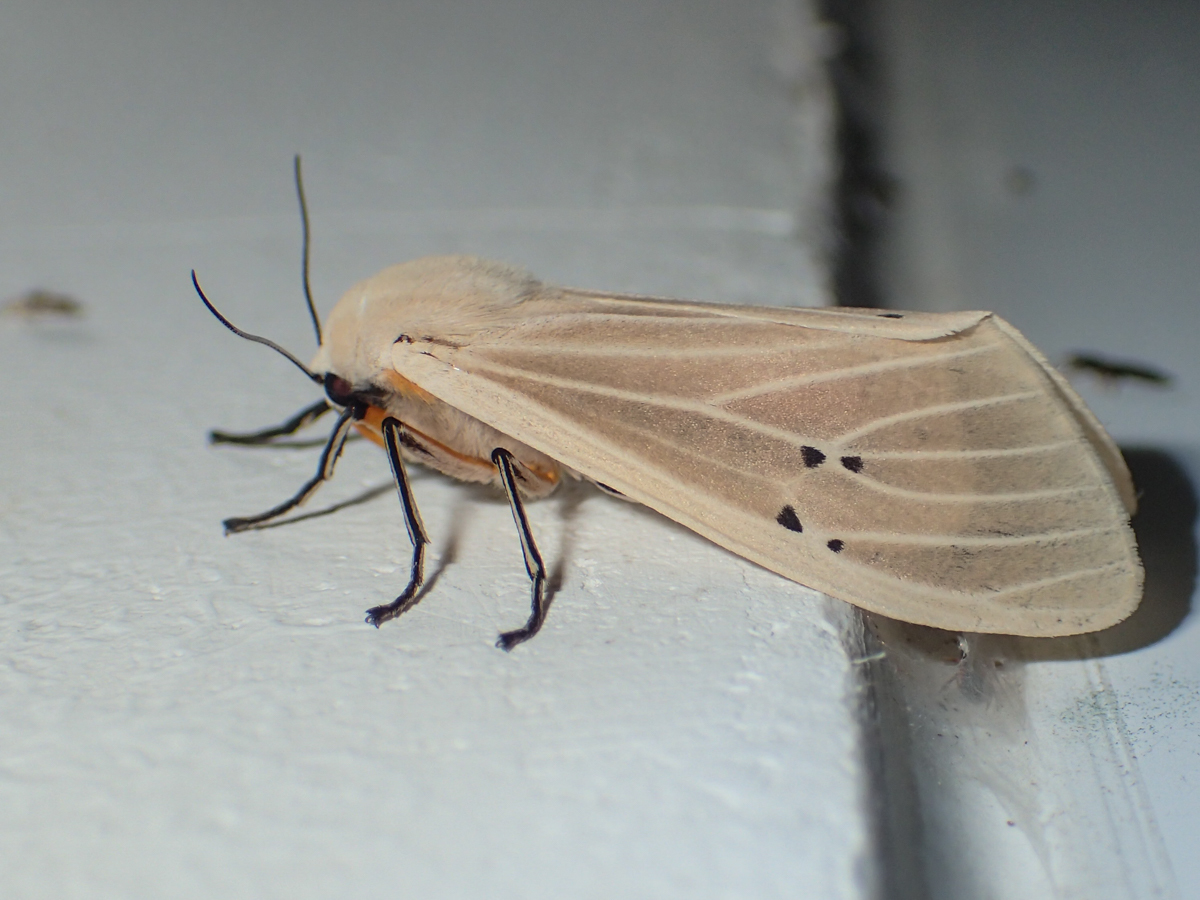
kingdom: Animalia
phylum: Arthropoda
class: Insecta
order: Lepidoptera
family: Erebidae
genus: Creatonotos
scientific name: Creatonotos transiens
